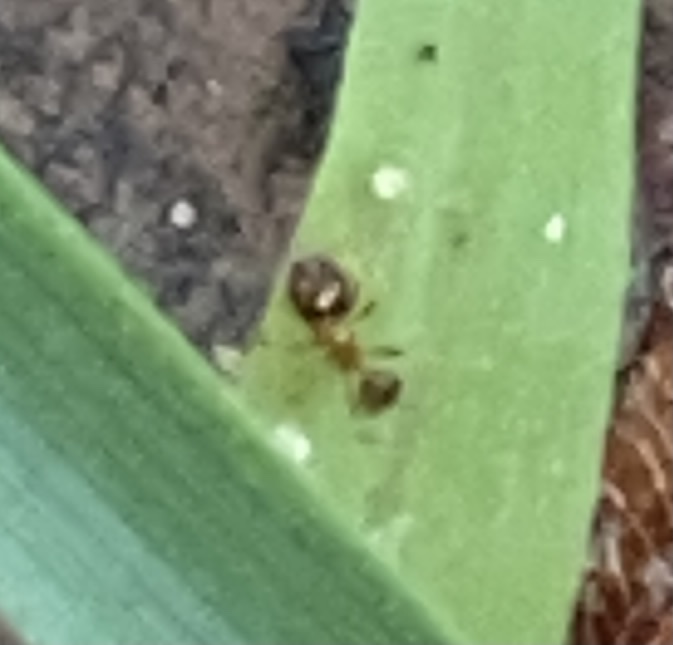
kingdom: Animalia
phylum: Arthropoda
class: Insecta
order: Hymenoptera
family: Formicidae
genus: Pheidole
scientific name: Pheidole bicarinata
